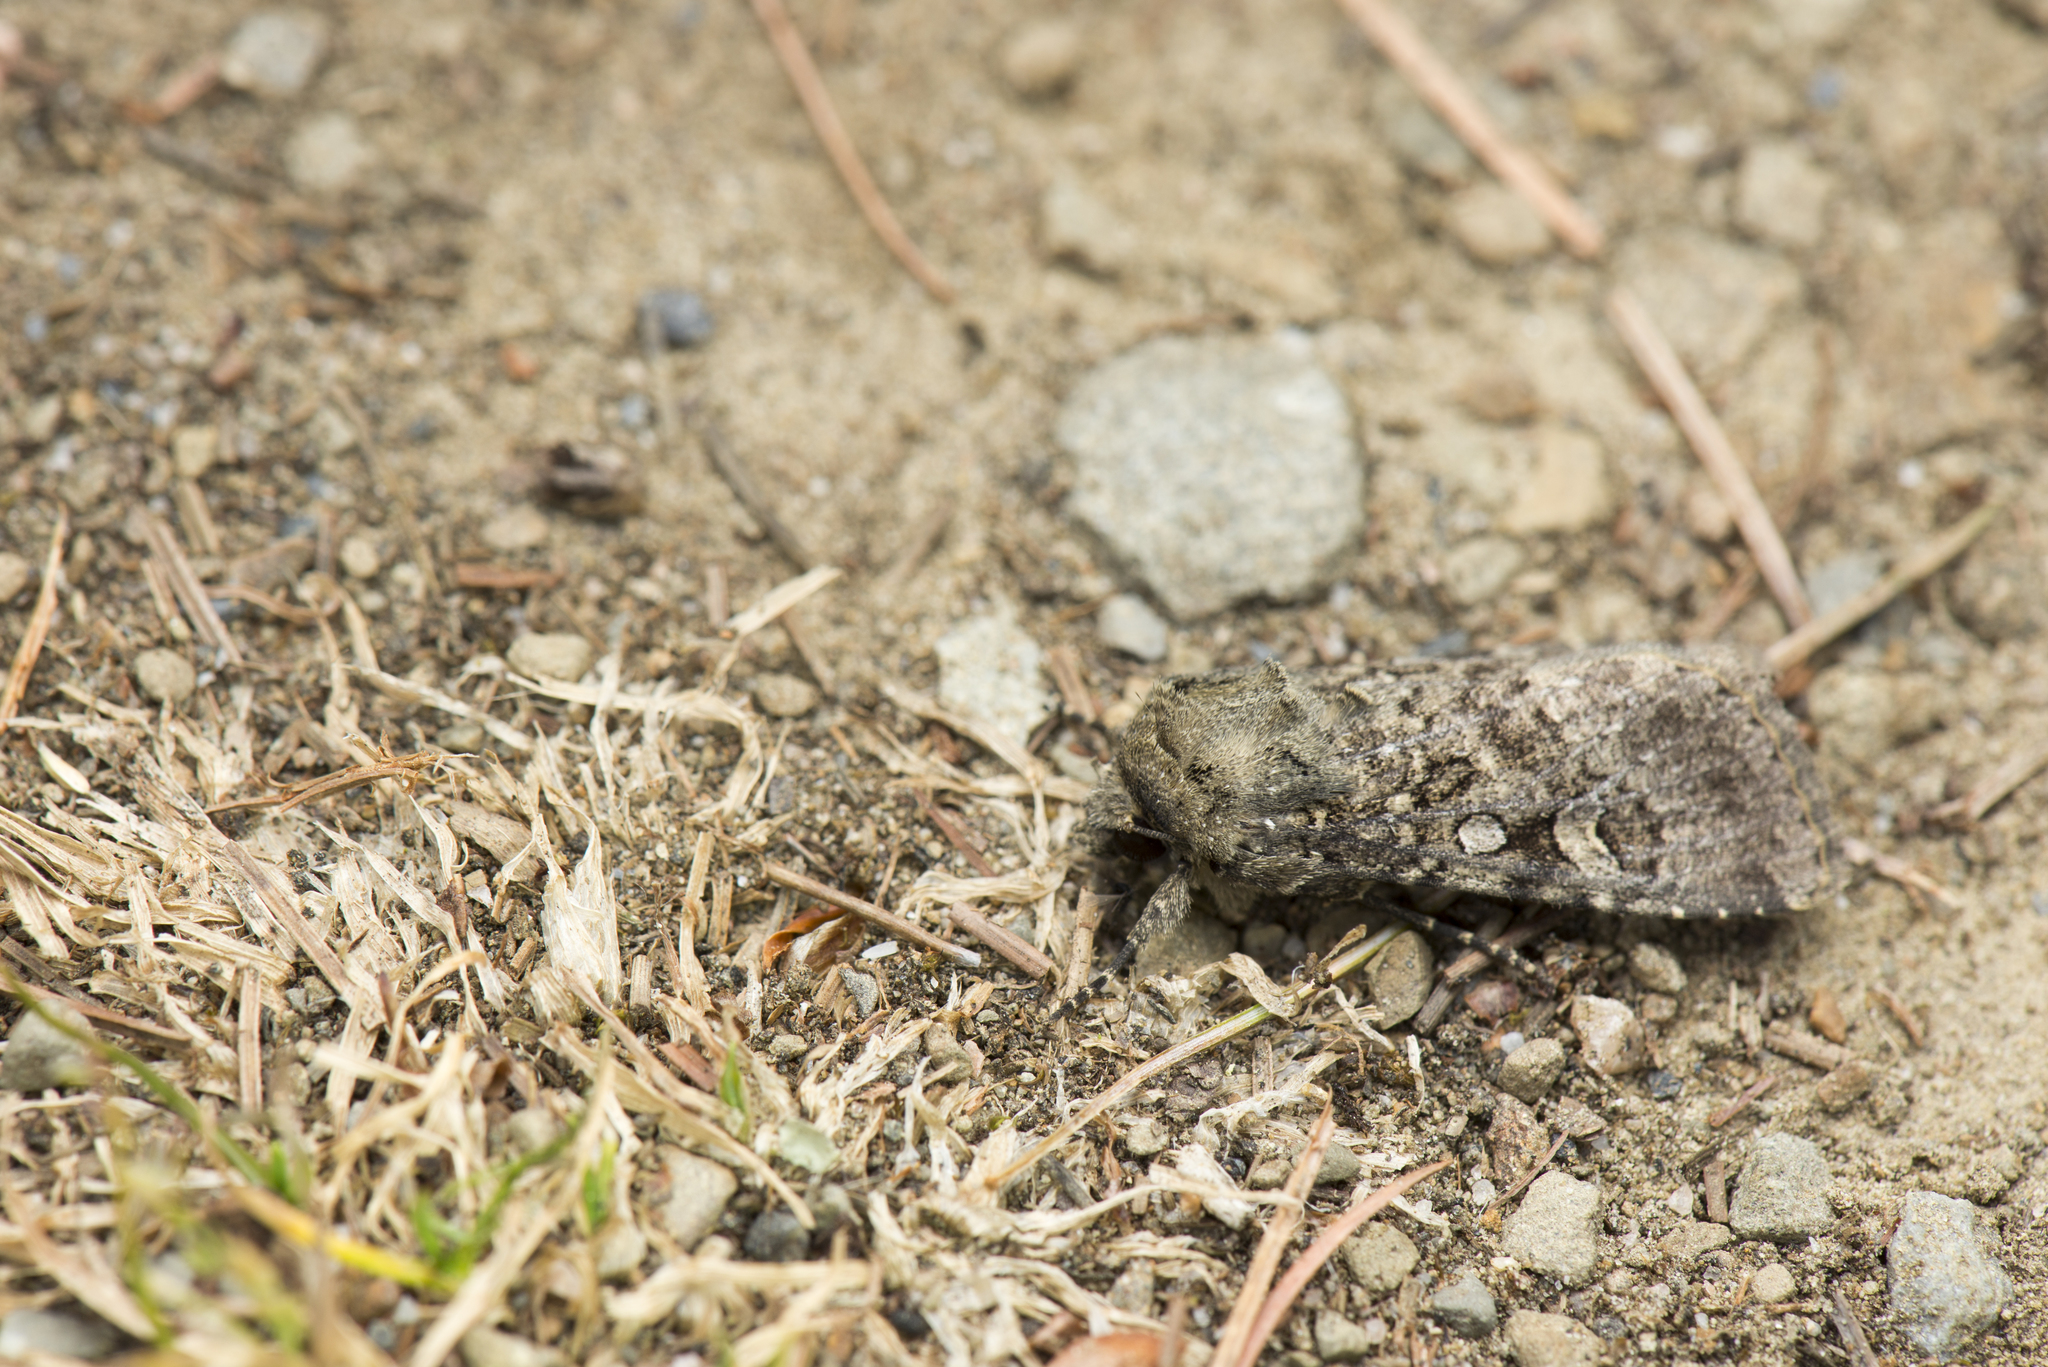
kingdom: Animalia
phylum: Arthropoda
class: Insecta
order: Lepidoptera
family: Noctuidae
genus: Apospasta
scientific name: Apospasta rantaizanensis
